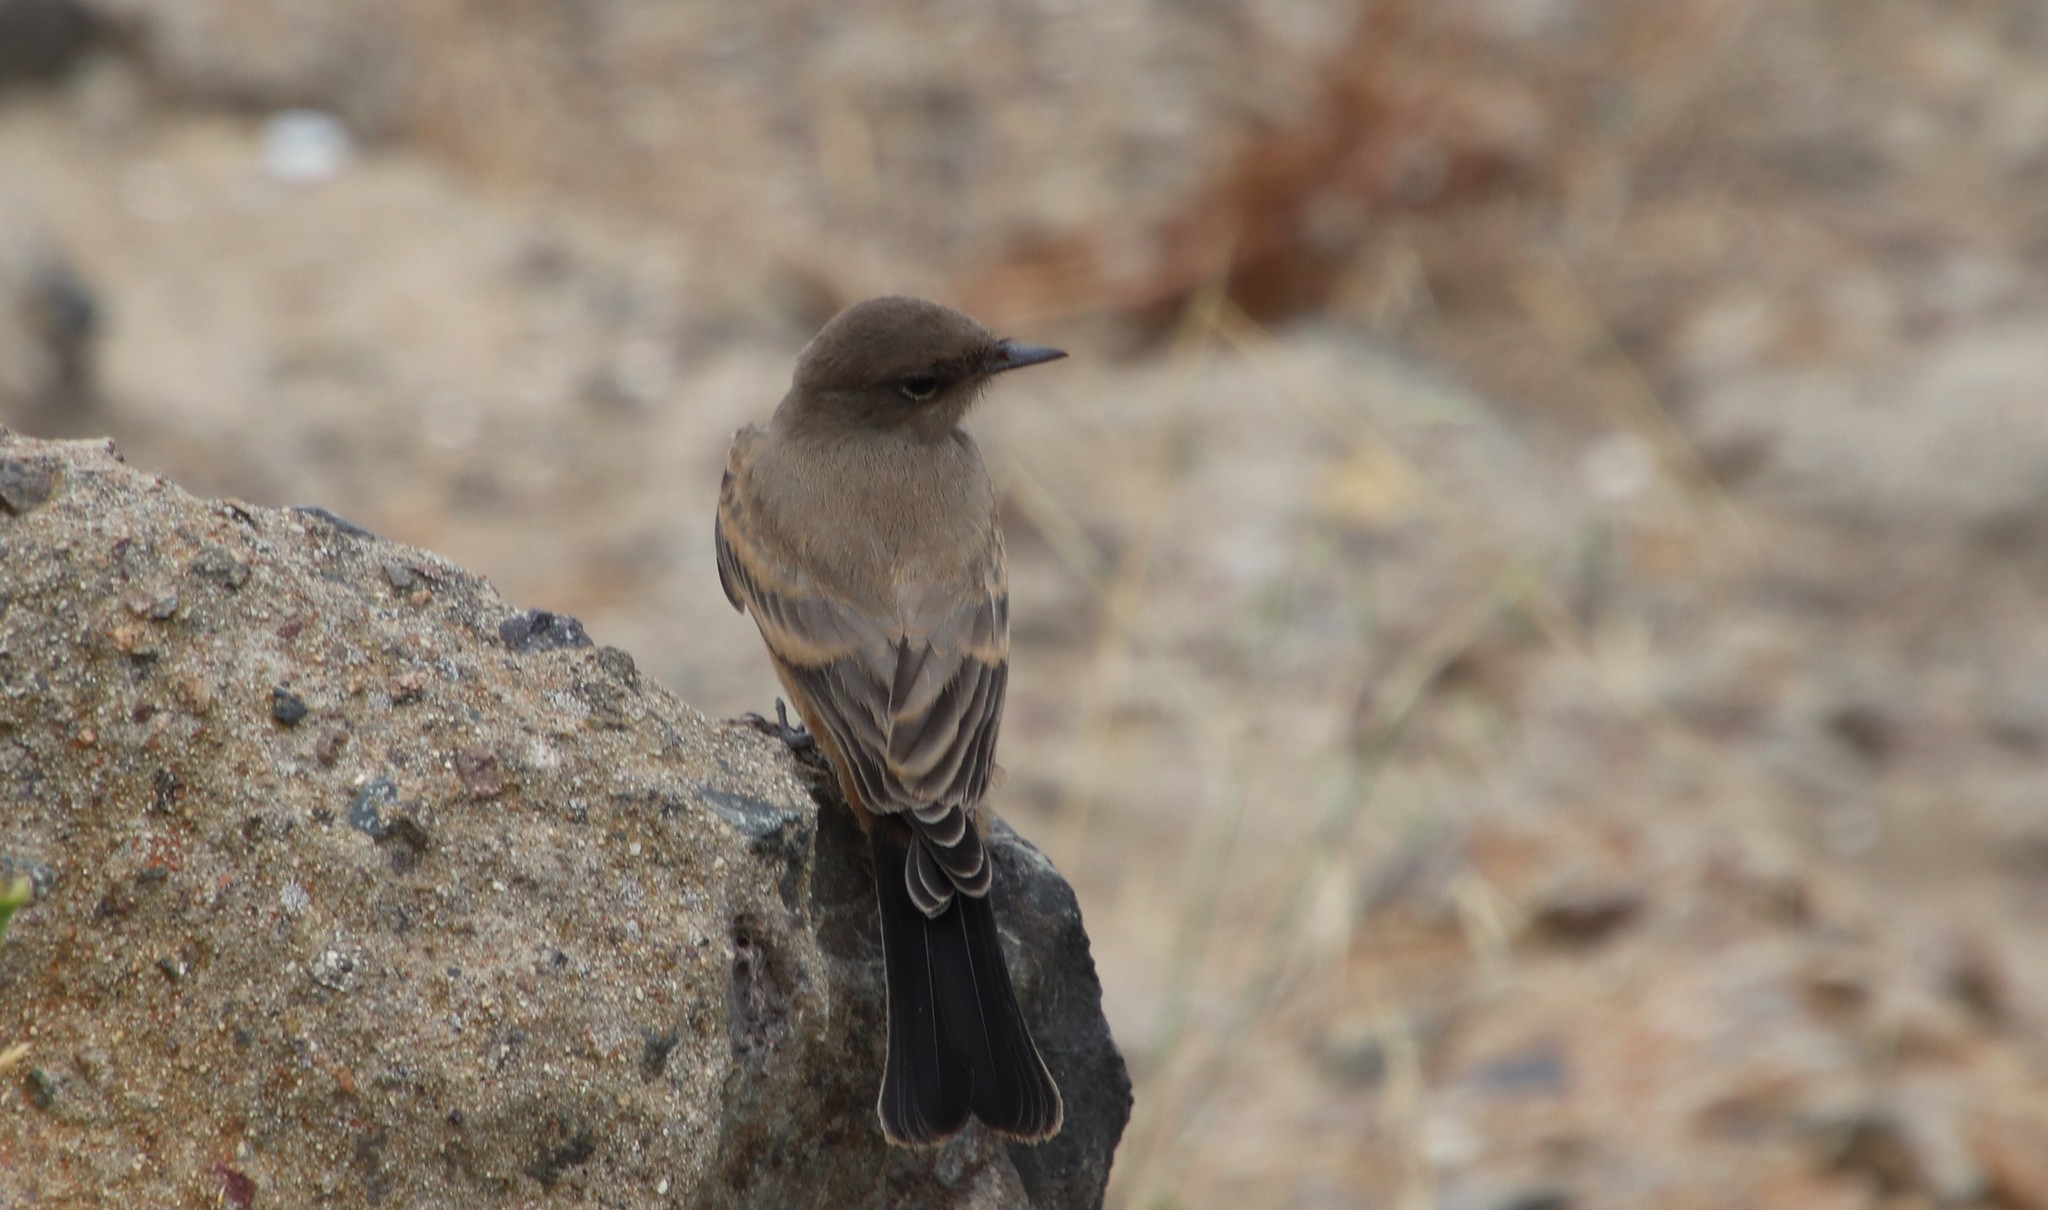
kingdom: Animalia
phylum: Chordata
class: Aves
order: Passeriformes
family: Tyrannidae
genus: Sayornis
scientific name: Sayornis saya
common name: Say's phoebe
